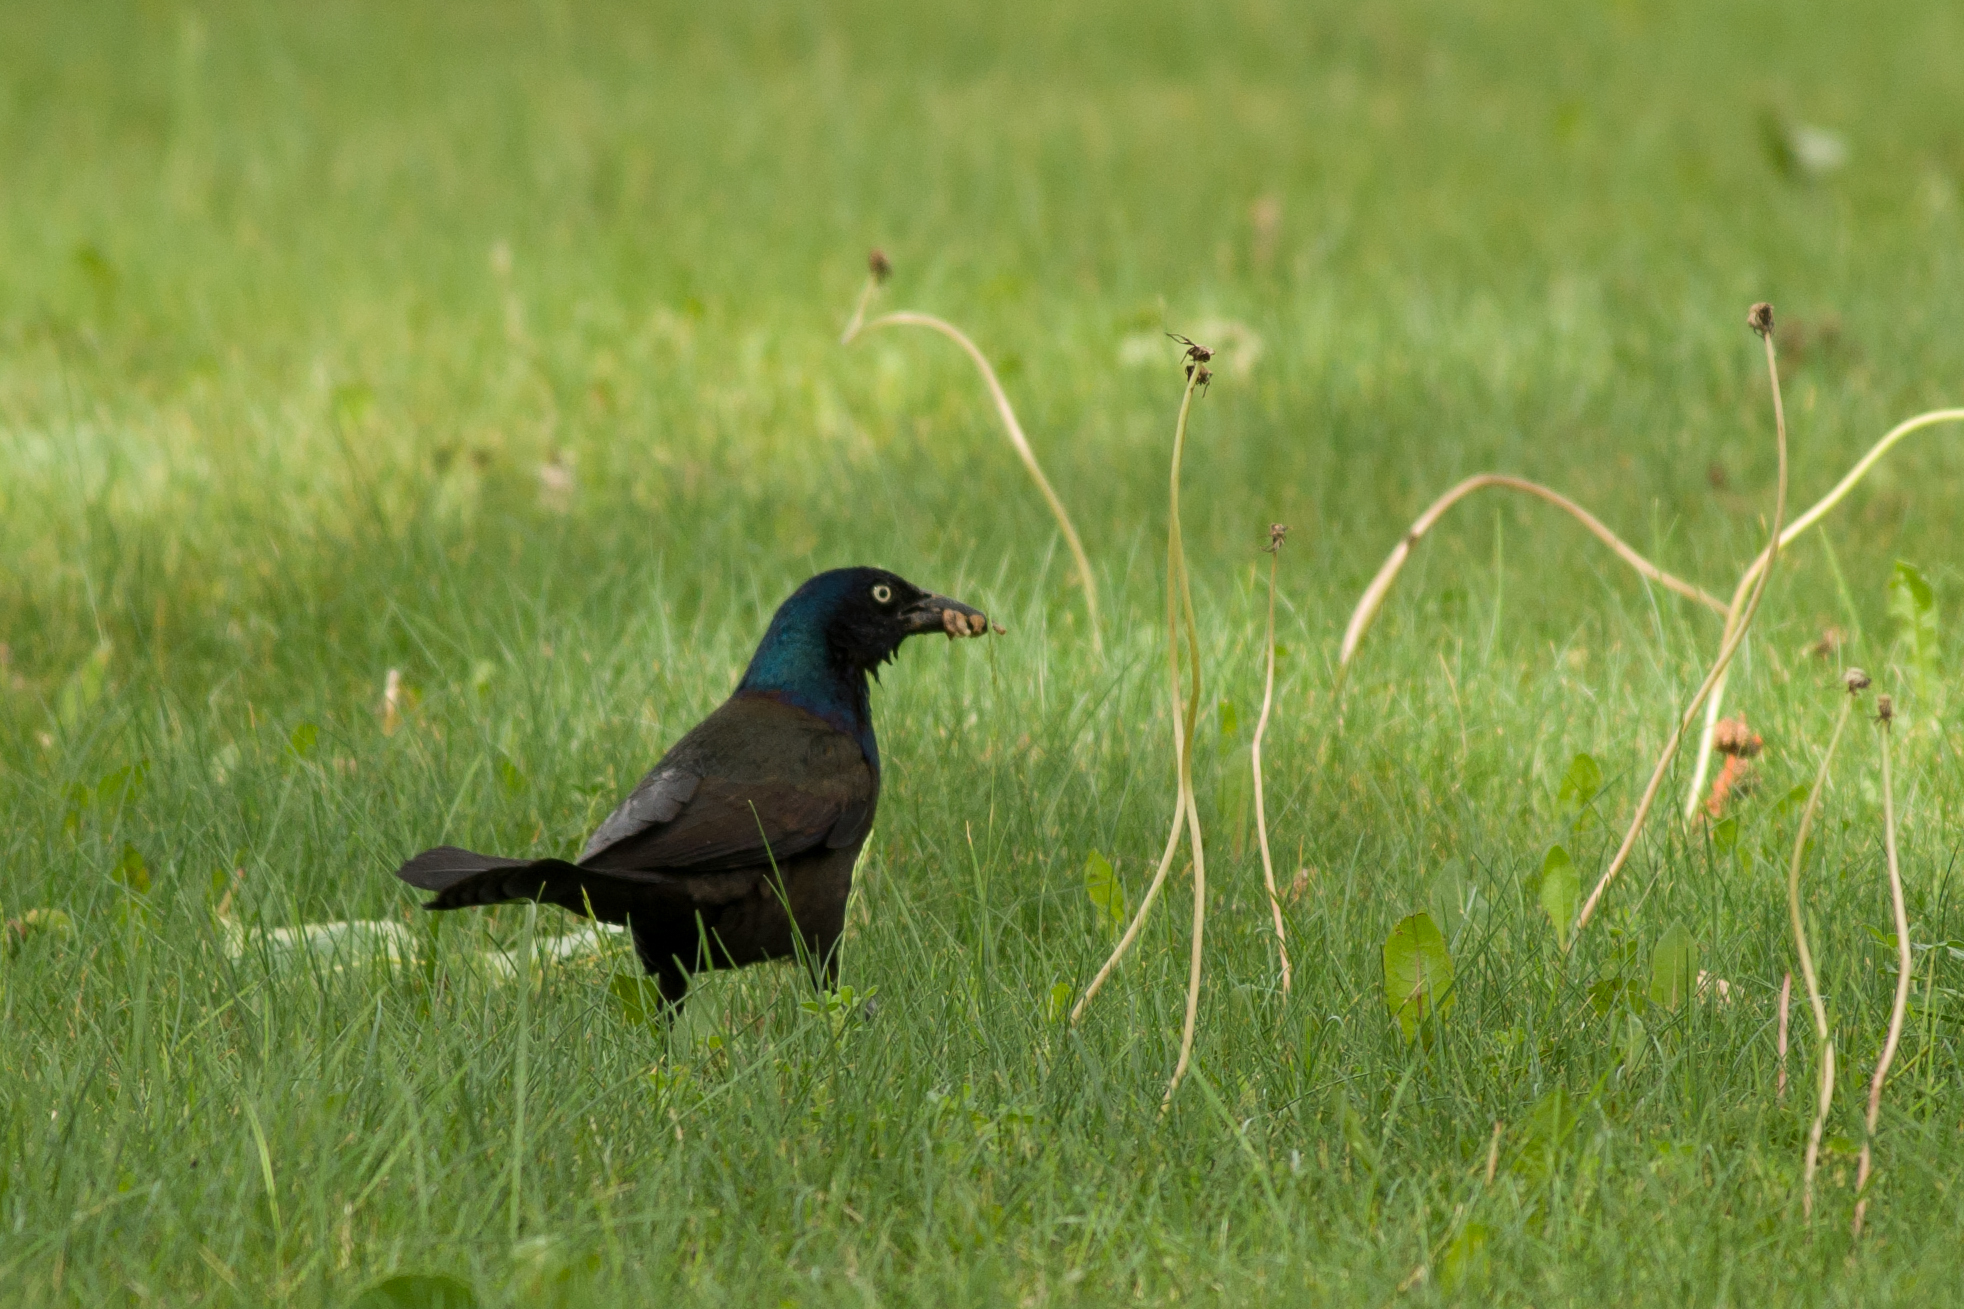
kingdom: Animalia
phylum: Chordata
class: Aves
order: Passeriformes
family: Icteridae
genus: Quiscalus
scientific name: Quiscalus quiscula
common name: Common grackle
